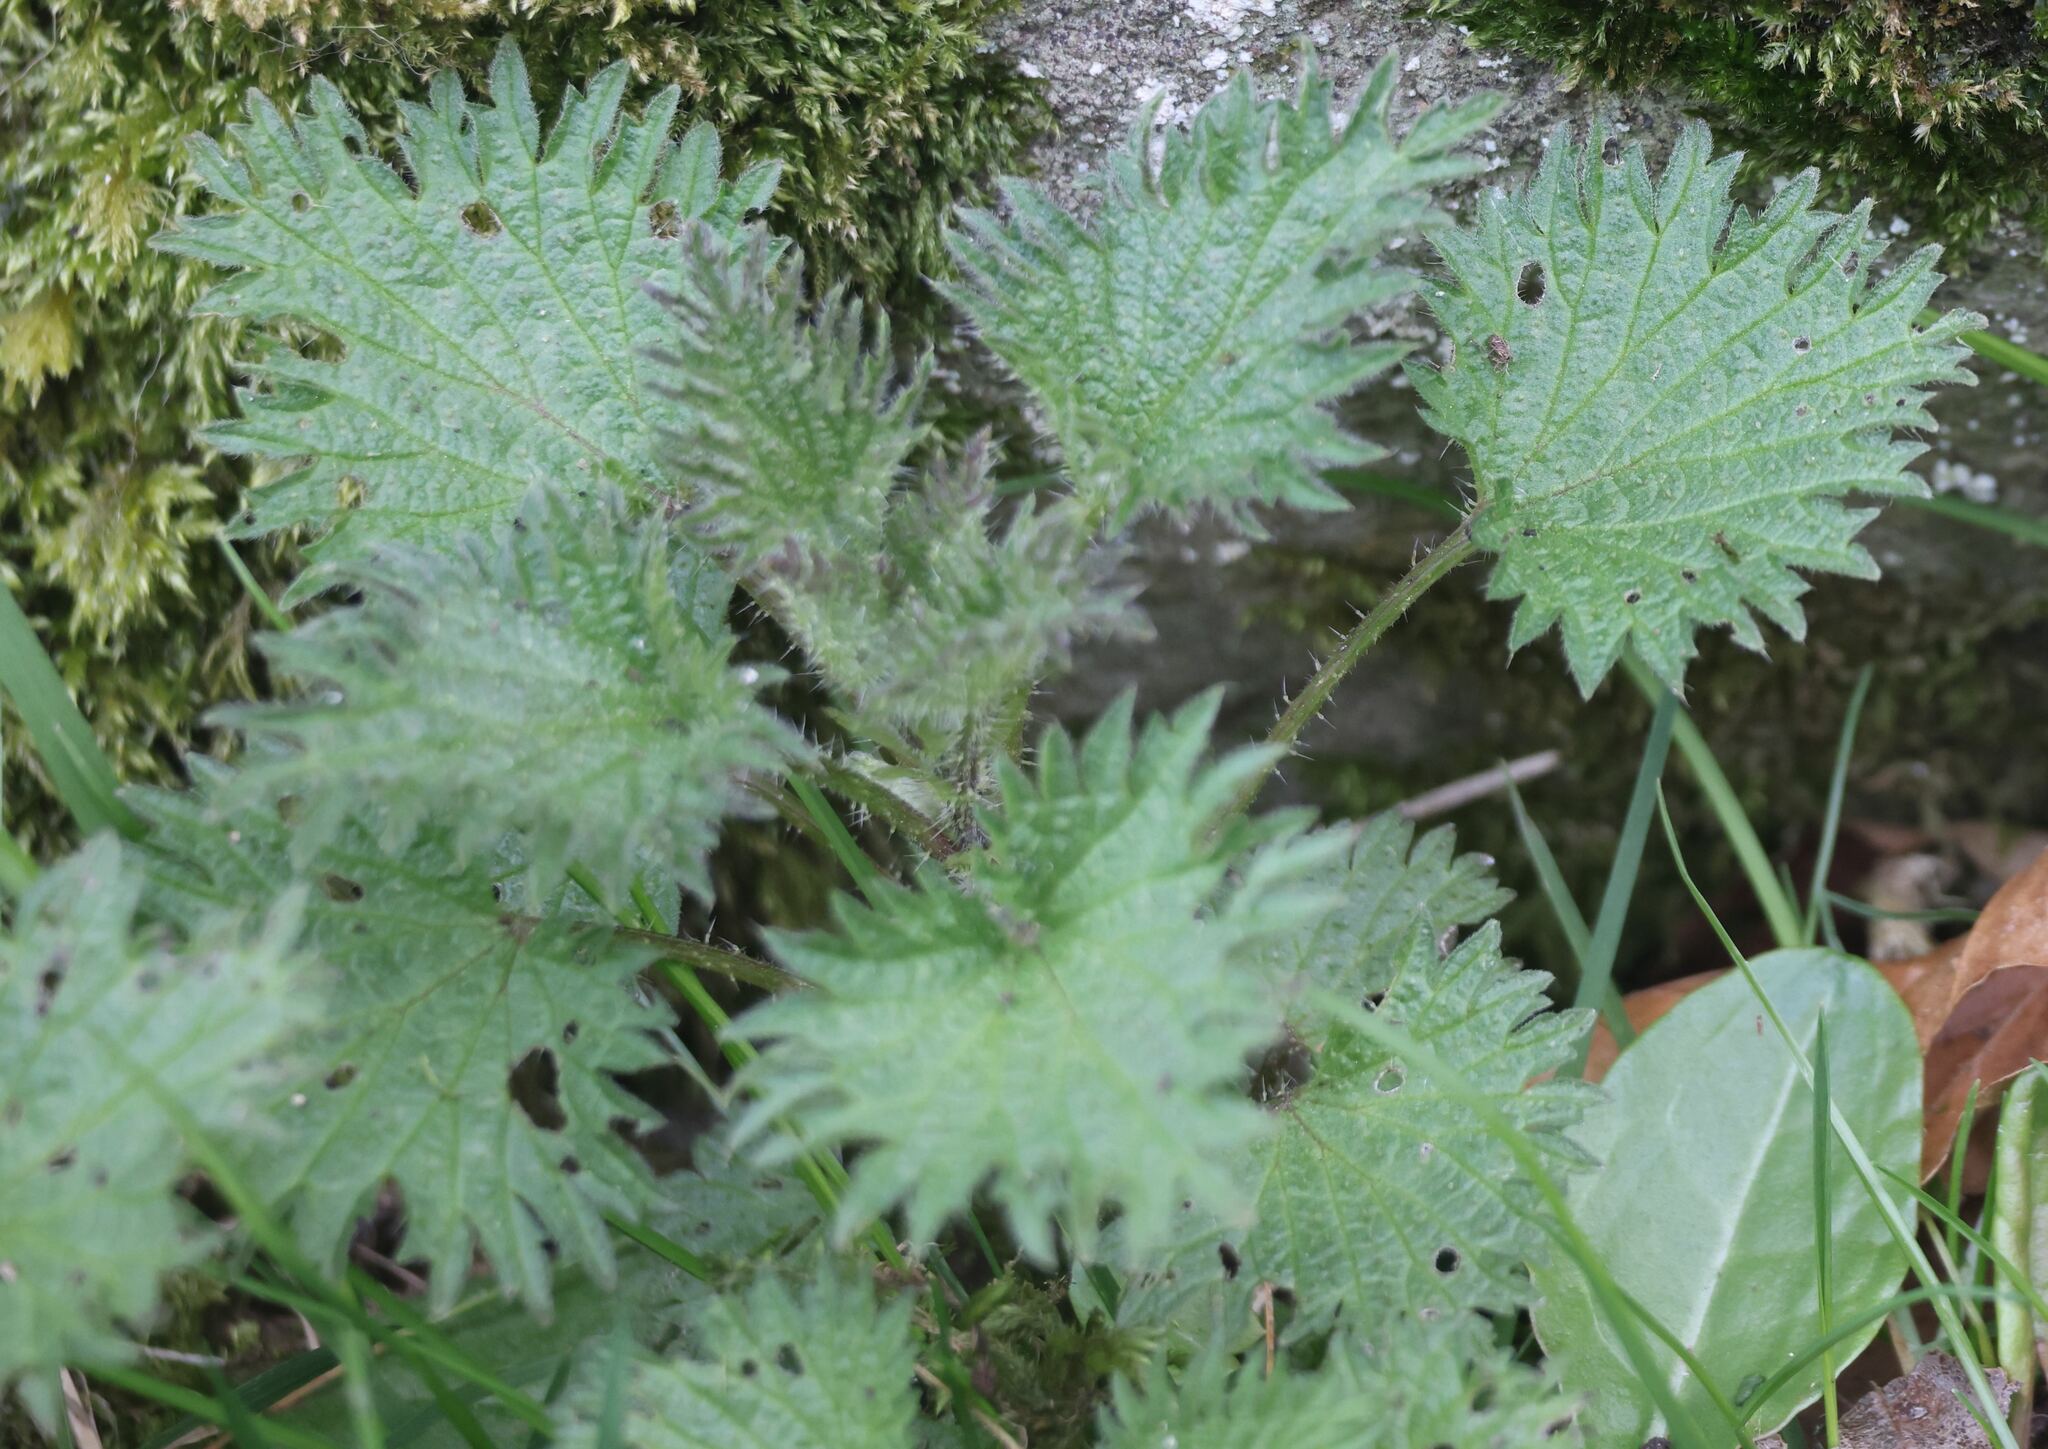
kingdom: Plantae
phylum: Tracheophyta
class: Magnoliopsida
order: Rosales
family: Urticaceae
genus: Urtica
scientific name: Urtica dioica
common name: Common nettle
